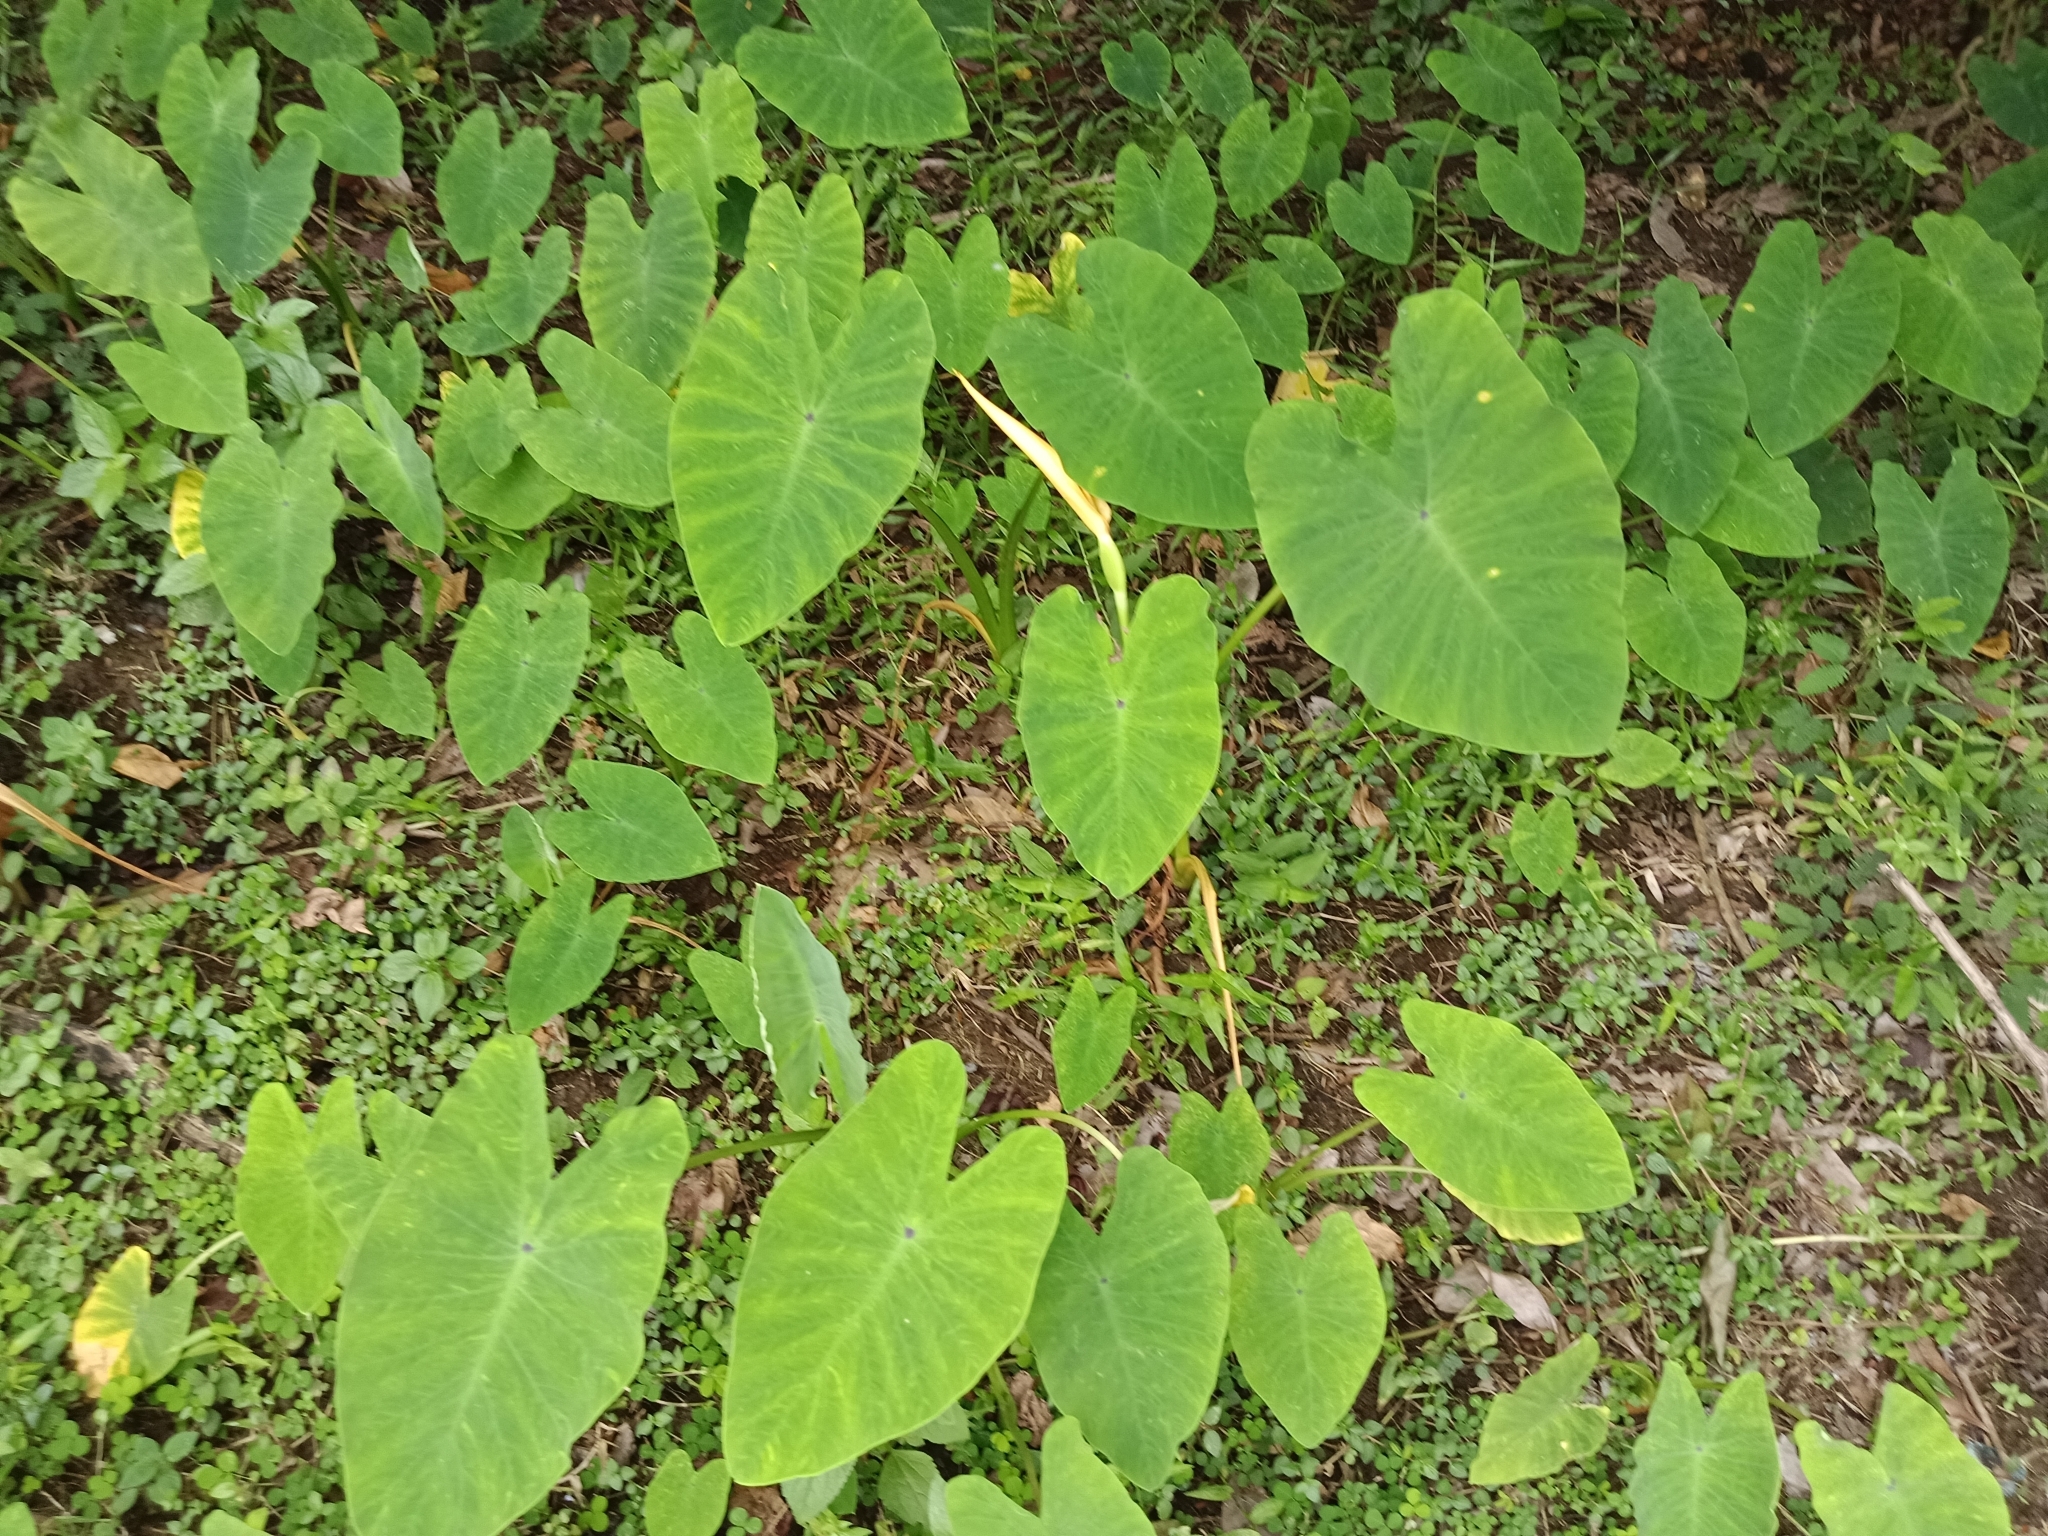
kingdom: Plantae
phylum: Tracheophyta
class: Liliopsida
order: Alismatales
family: Araceae
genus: Colocasia
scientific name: Colocasia esculenta
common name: Taro
